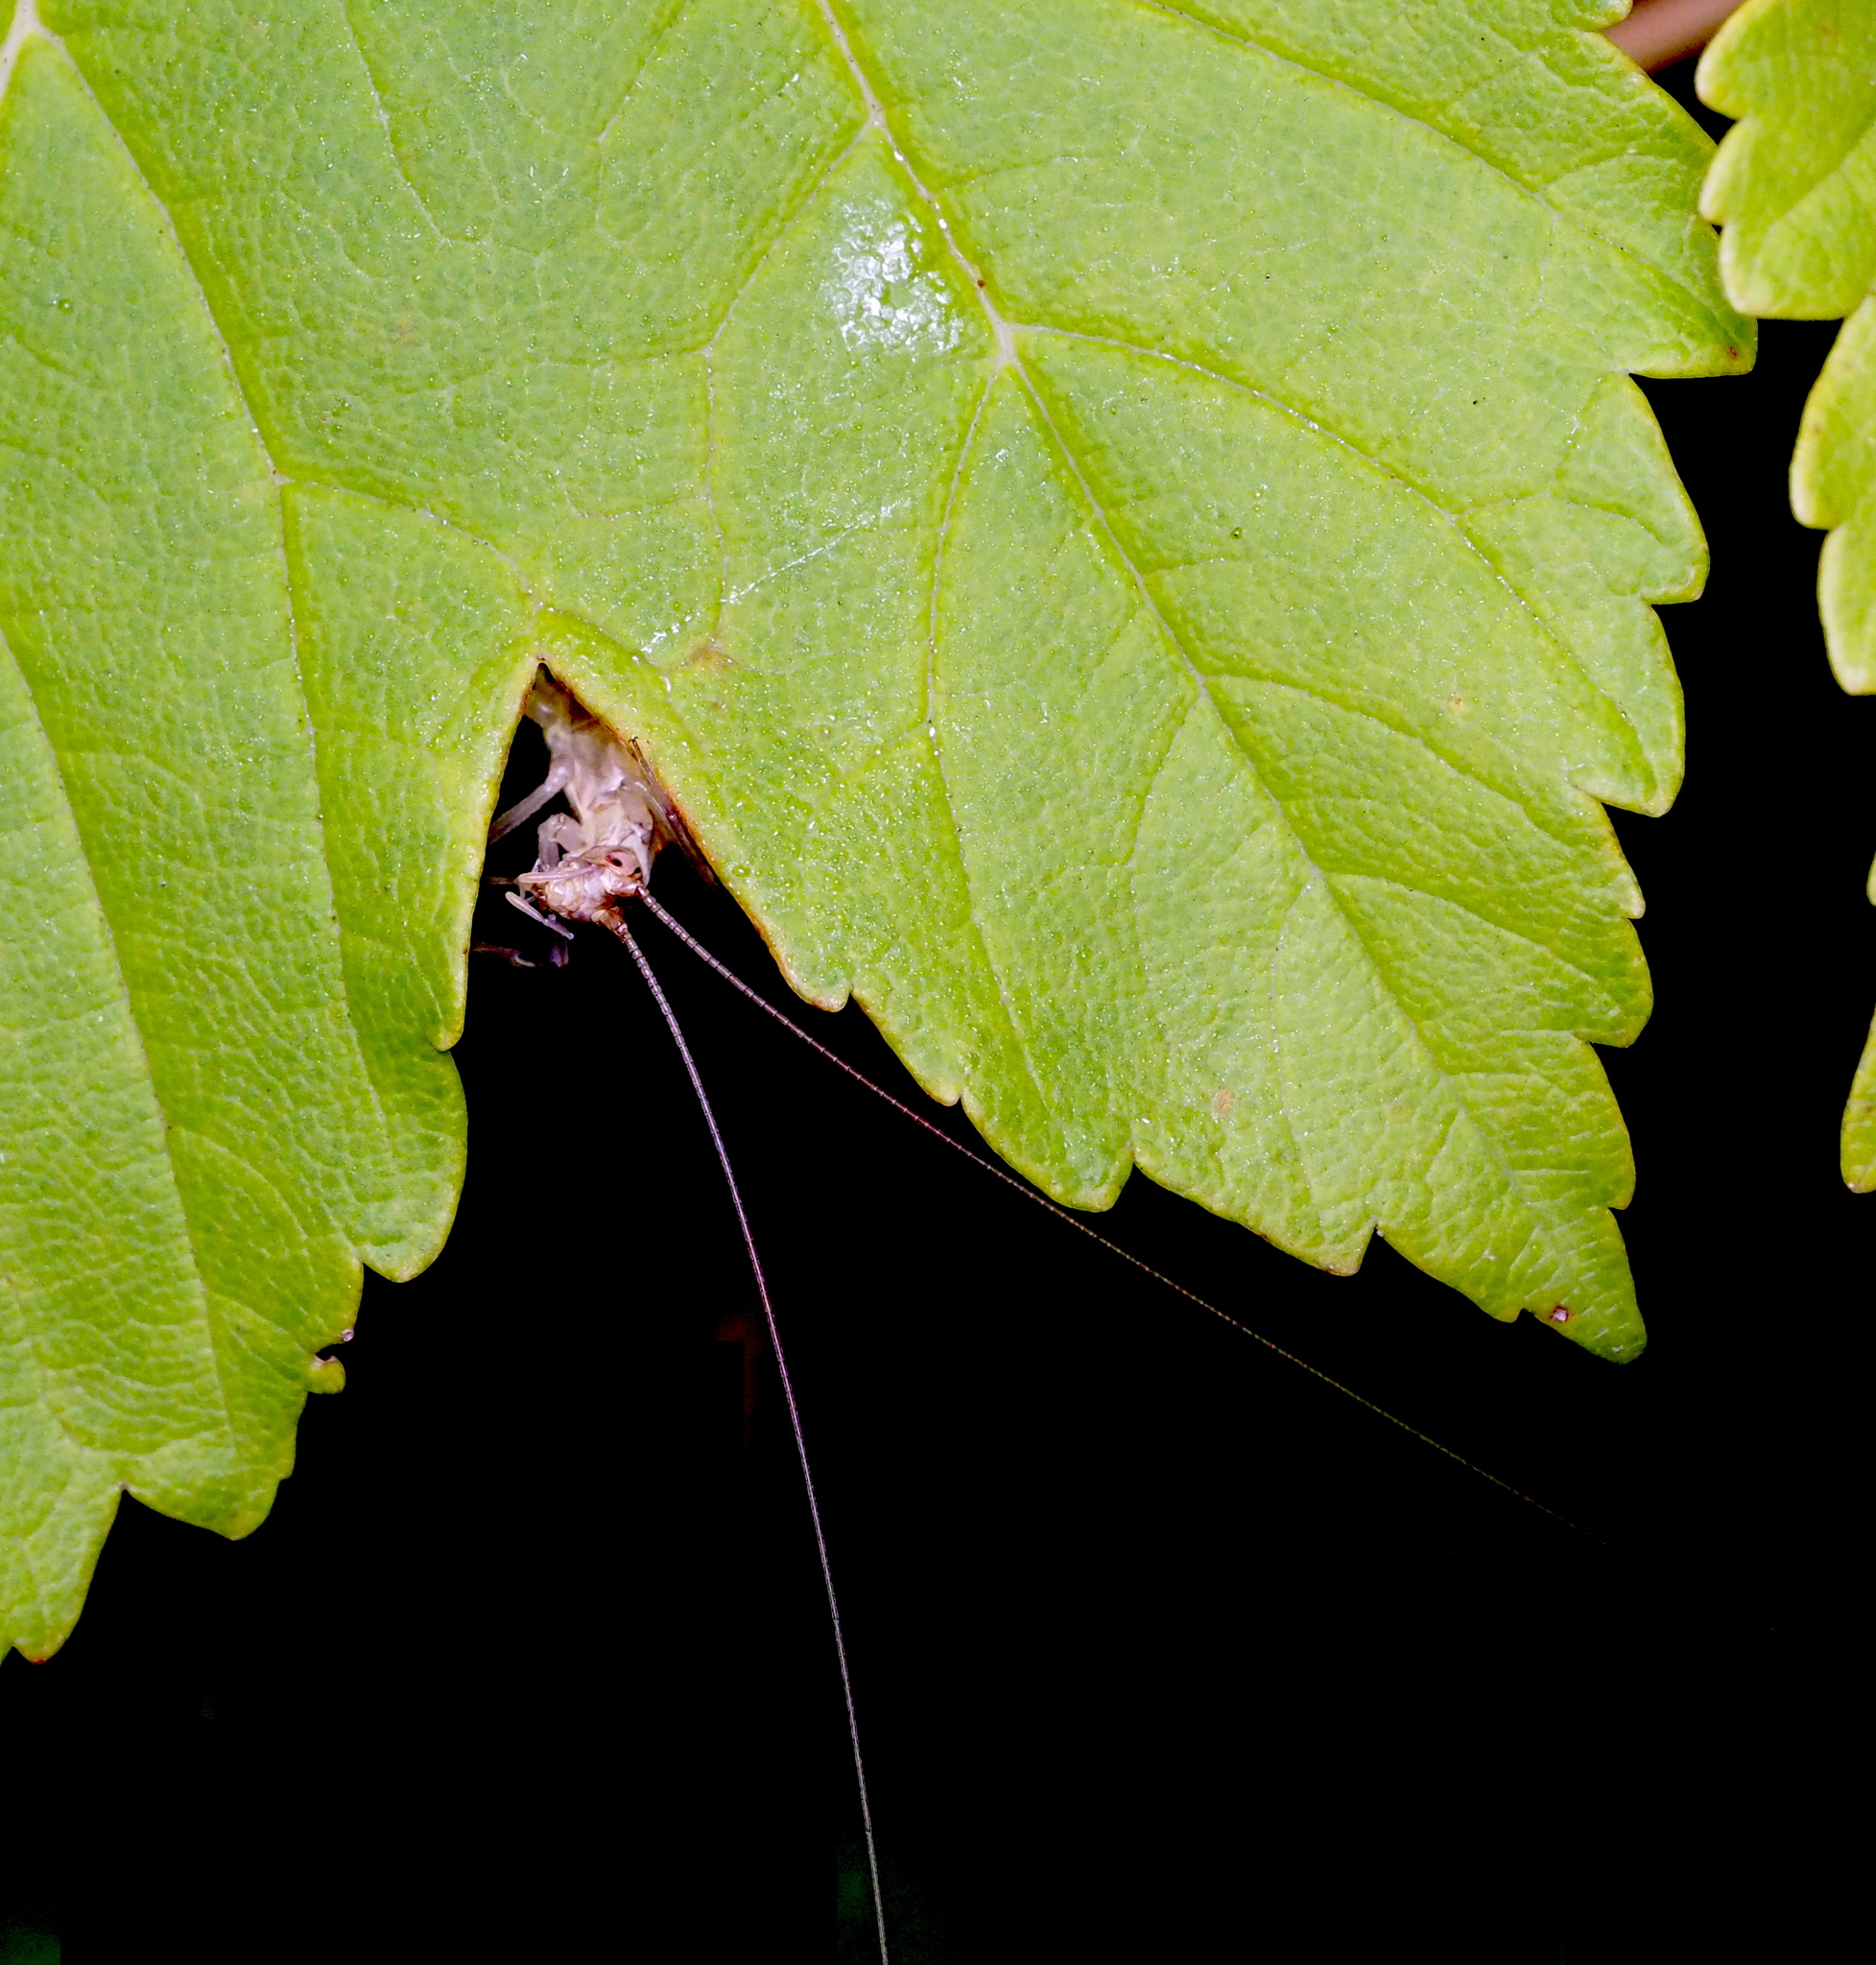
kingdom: Animalia
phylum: Arthropoda
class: Insecta
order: Orthoptera
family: Gryllidae
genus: Oecanthus
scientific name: Oecanthus pellucens
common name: Tree-cricket
